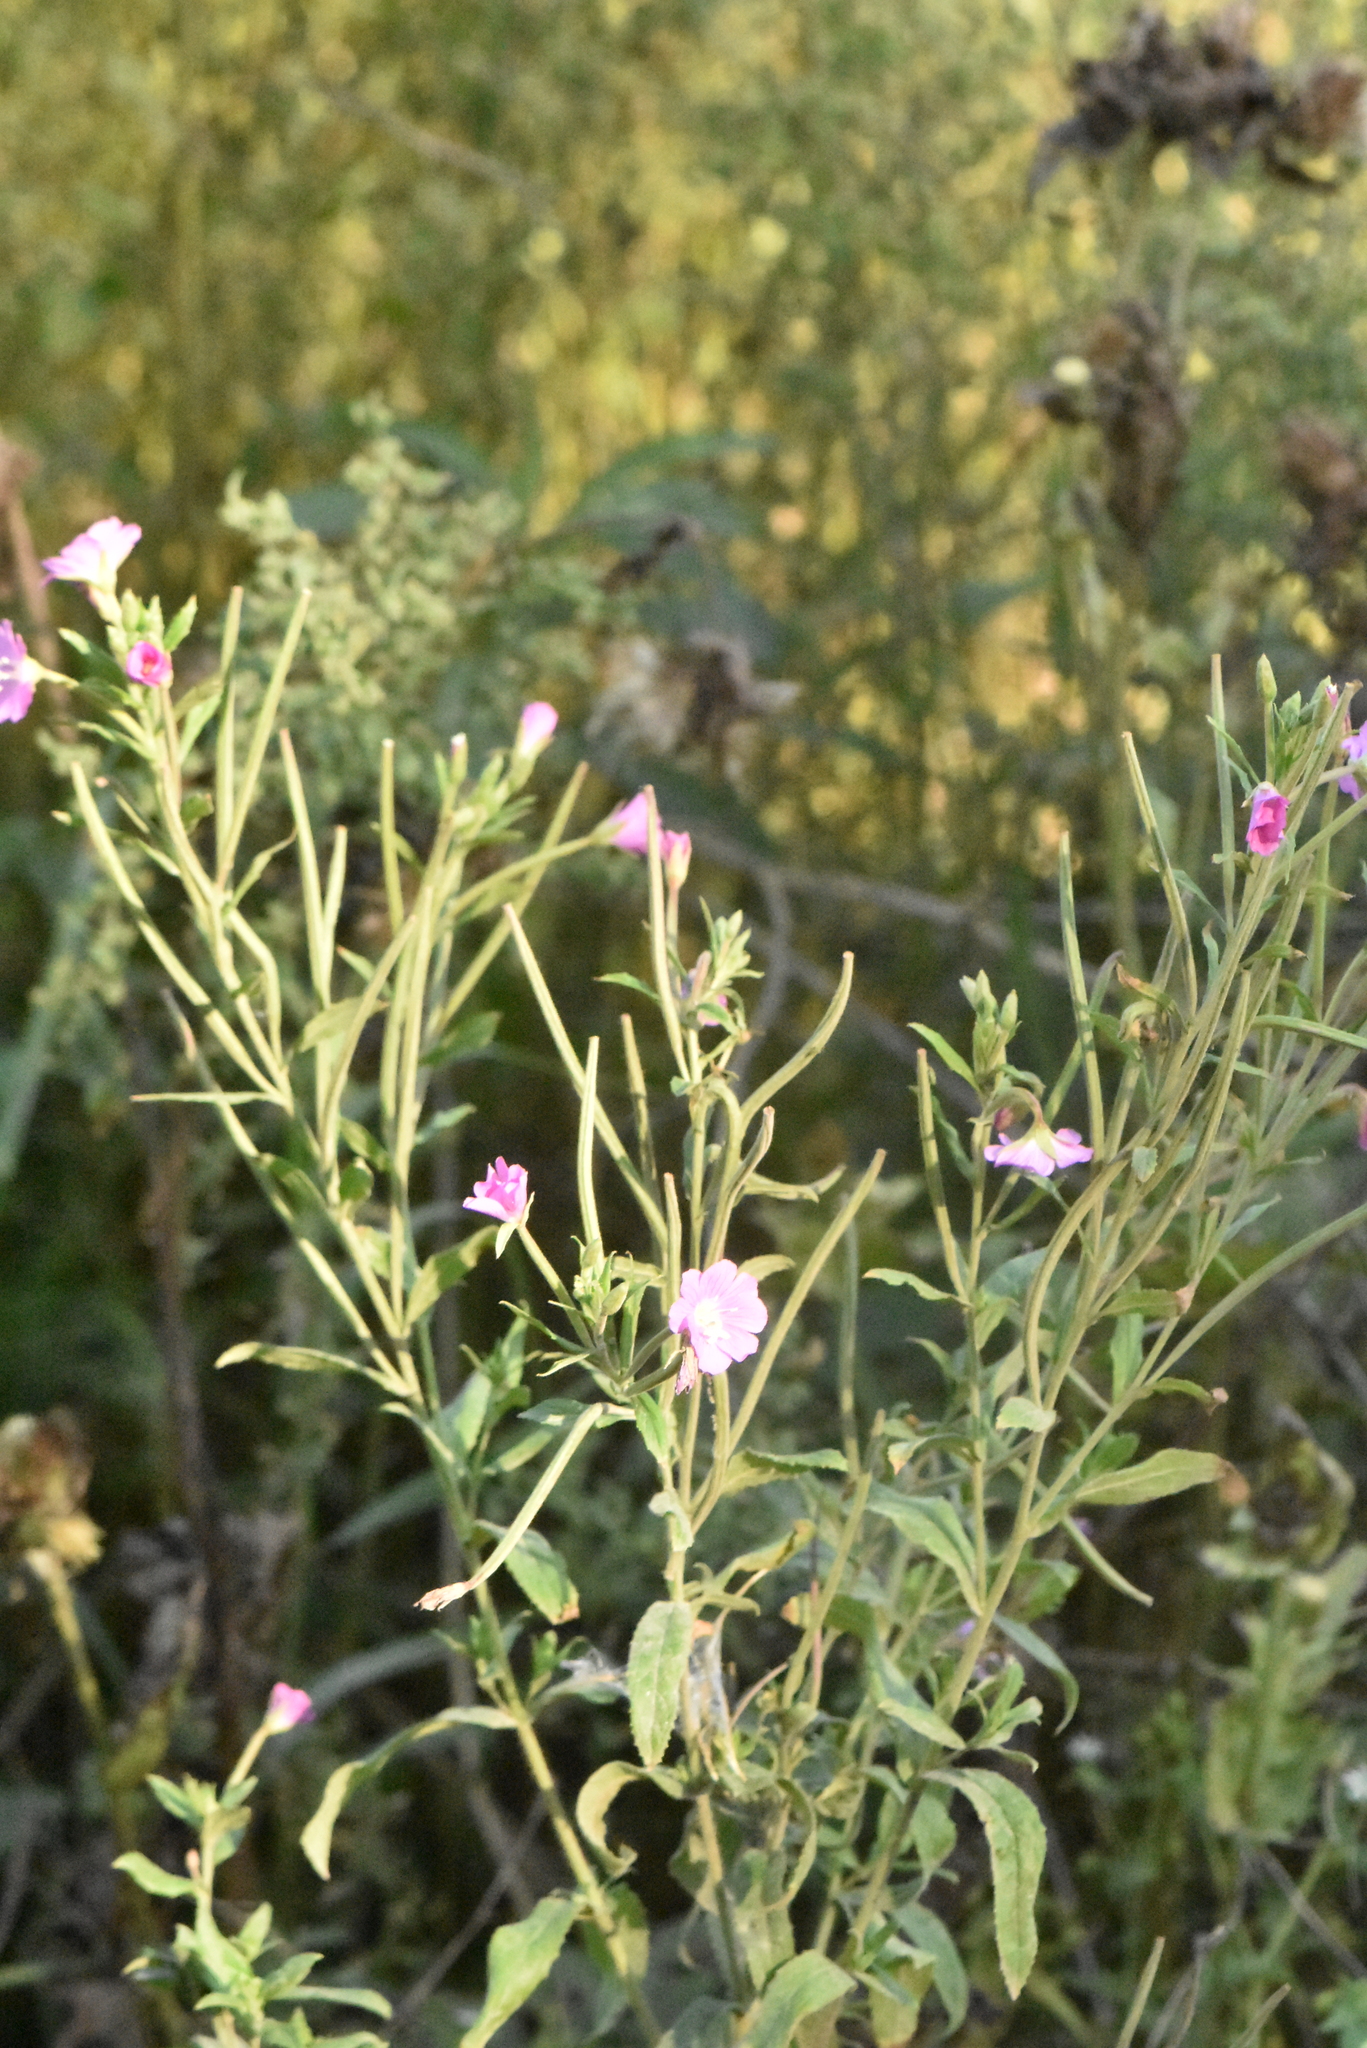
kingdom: Plantae
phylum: Tracheophyta
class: Magnoliopsida
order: Myrtales
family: Onagraceae
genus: Epilobium
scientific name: Epilobium hirsutum
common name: Great willowherb
